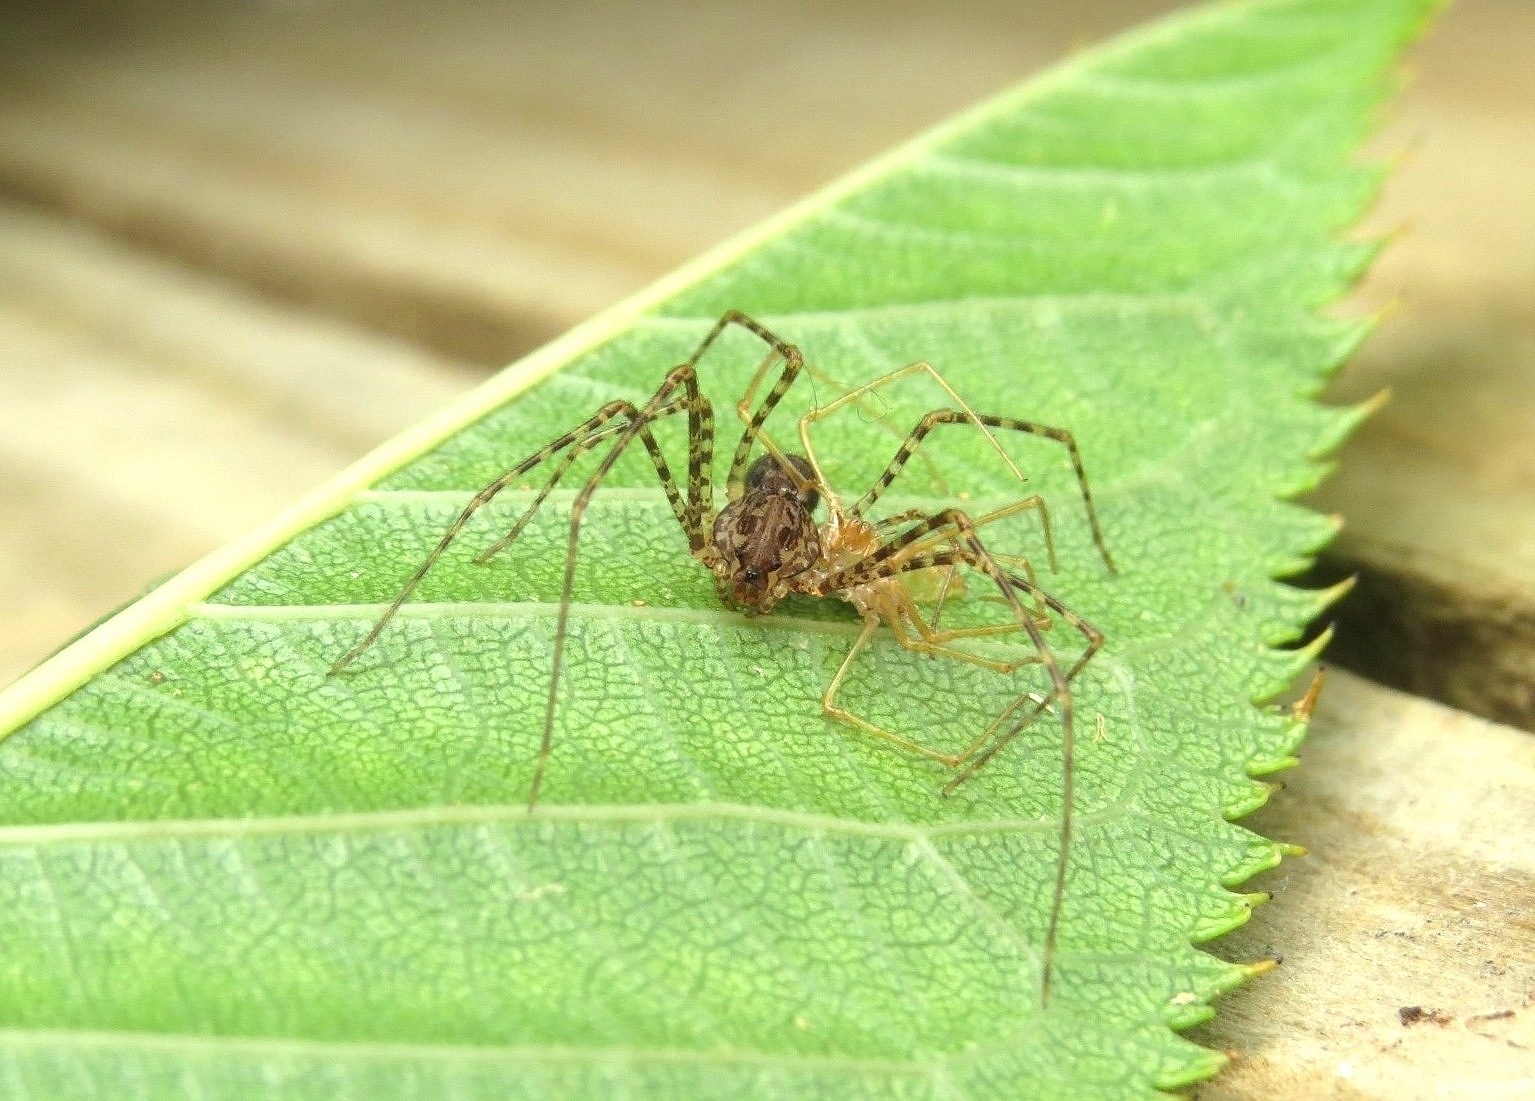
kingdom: Animalia
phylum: Arthropoda
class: Arachnida
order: Araneae
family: Scytodidae
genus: Scytodes
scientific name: Scytodes globula
